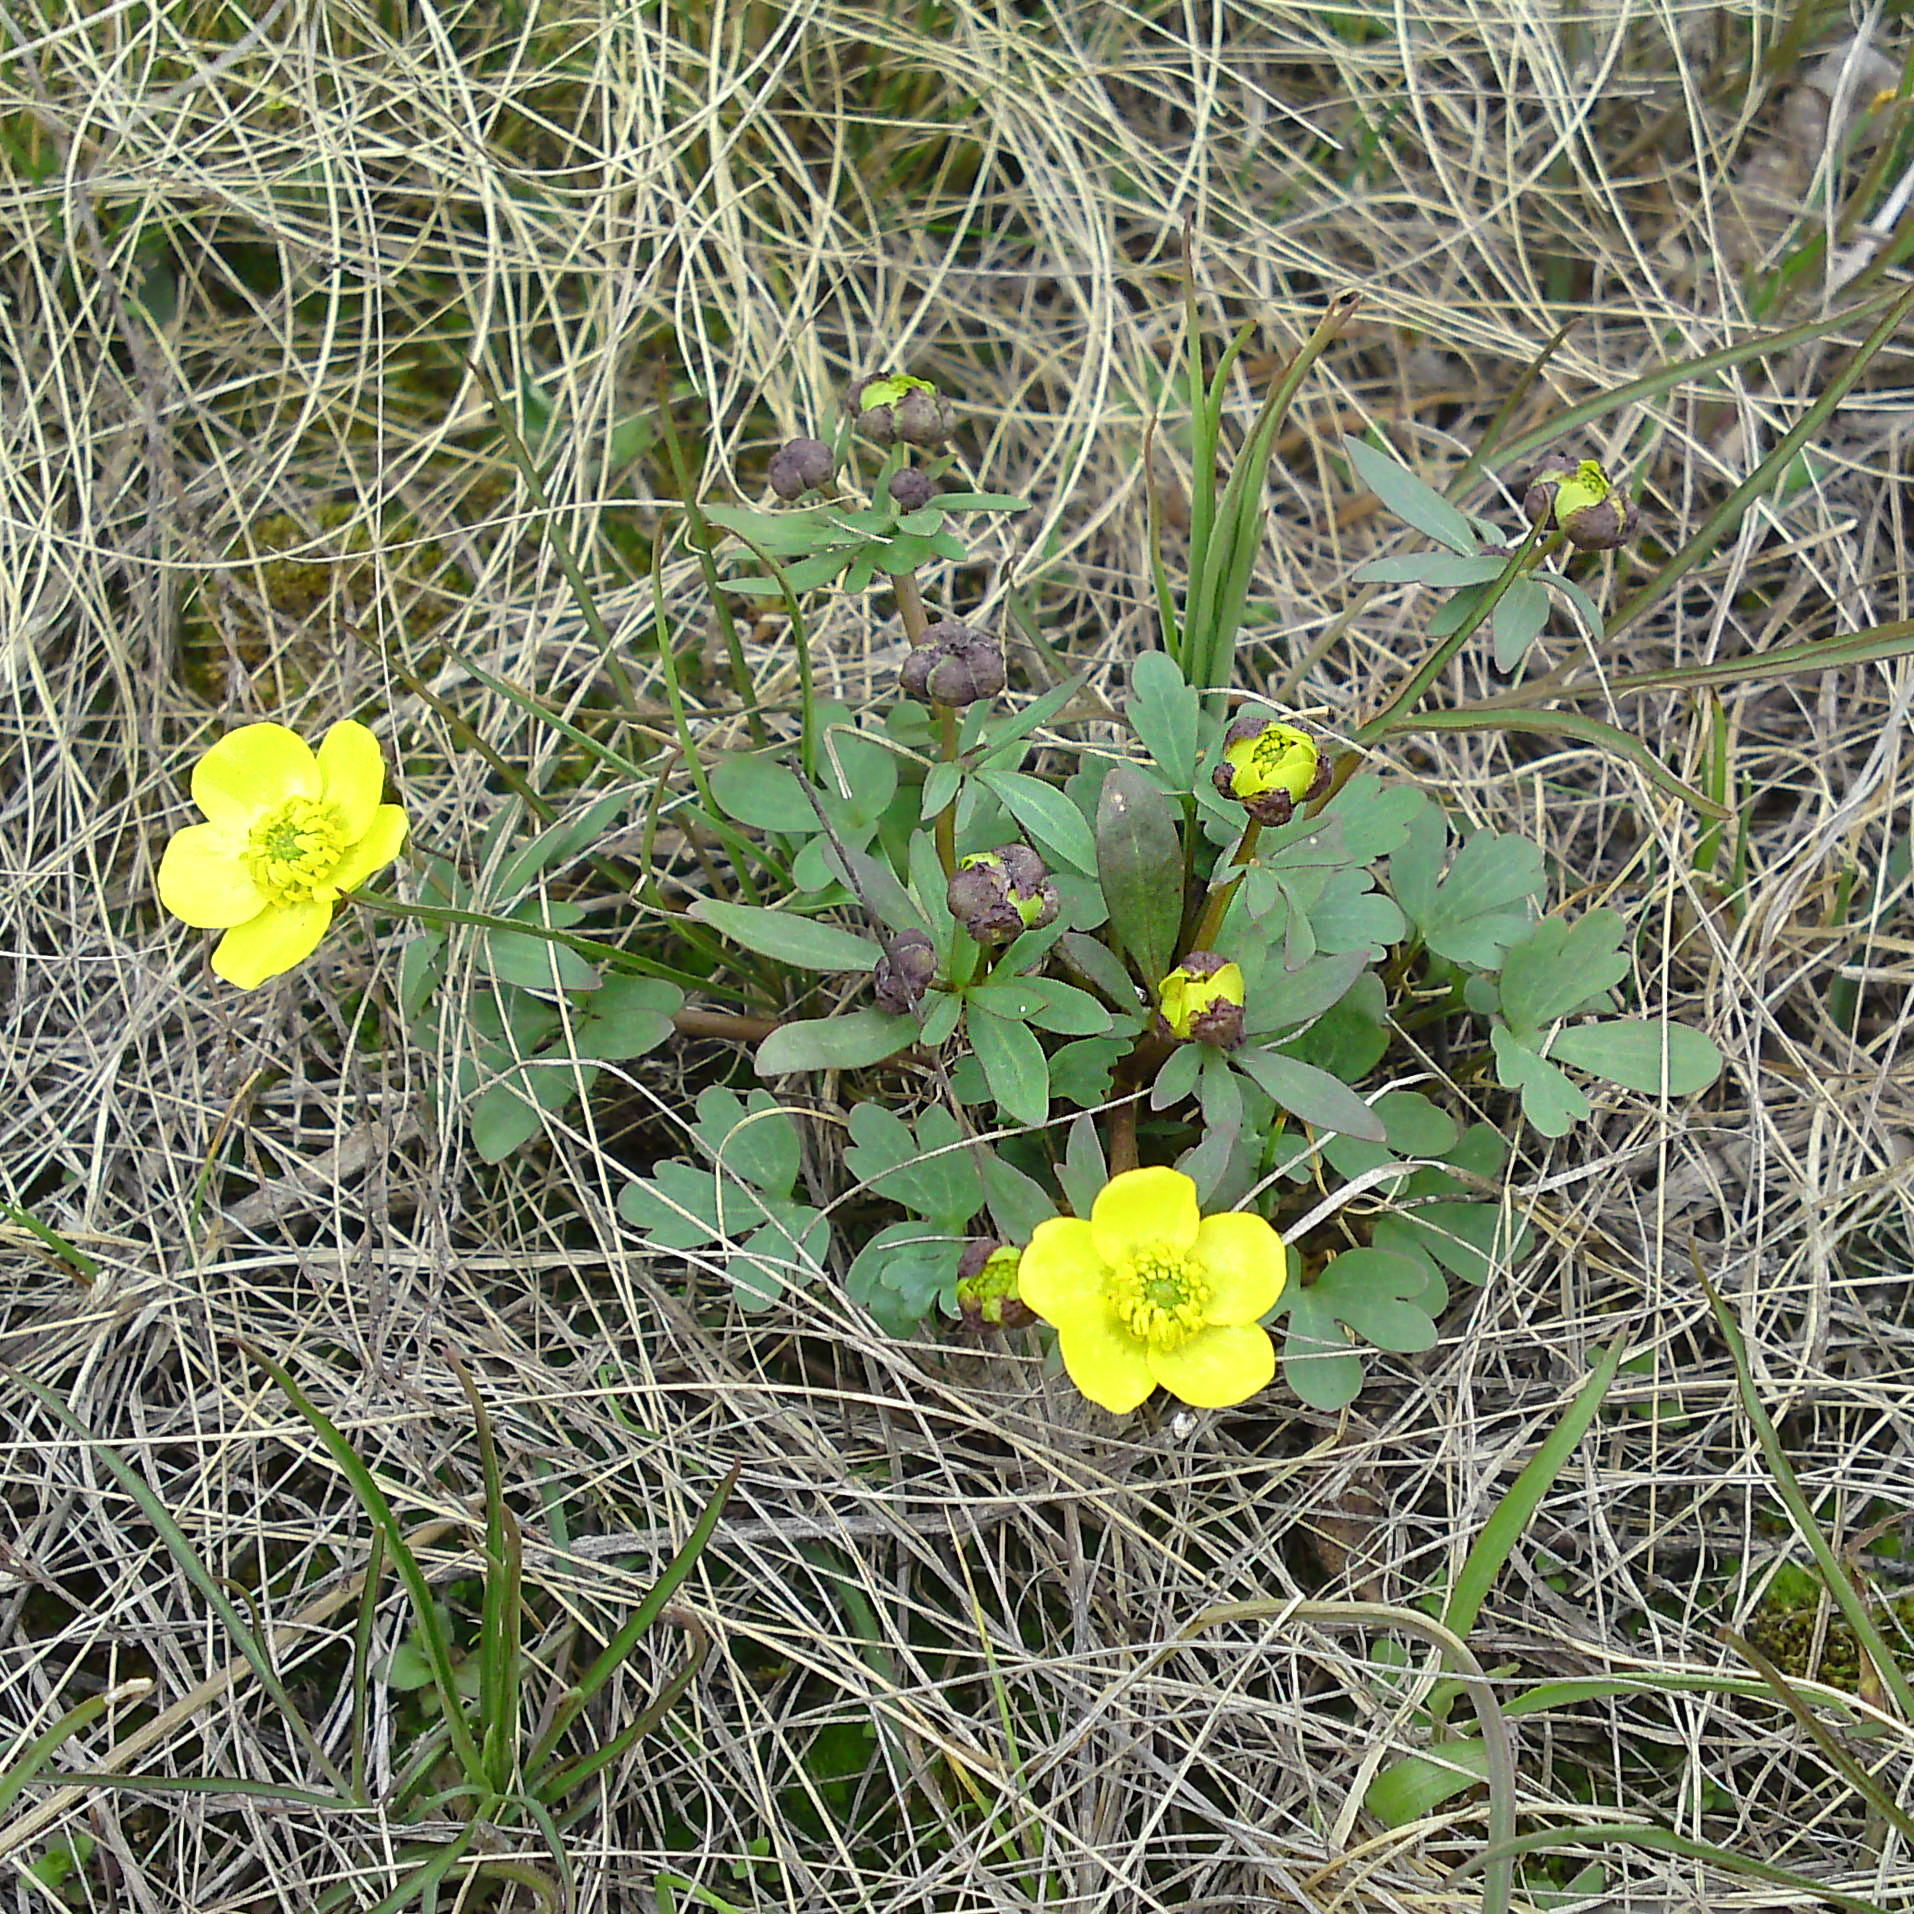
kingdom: Plantae
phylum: Tracheophyta
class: Magnoliopsida
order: Ranunculales
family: Ranunculaceae
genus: Ranunculus
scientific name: Ranunculus polyrhizos
